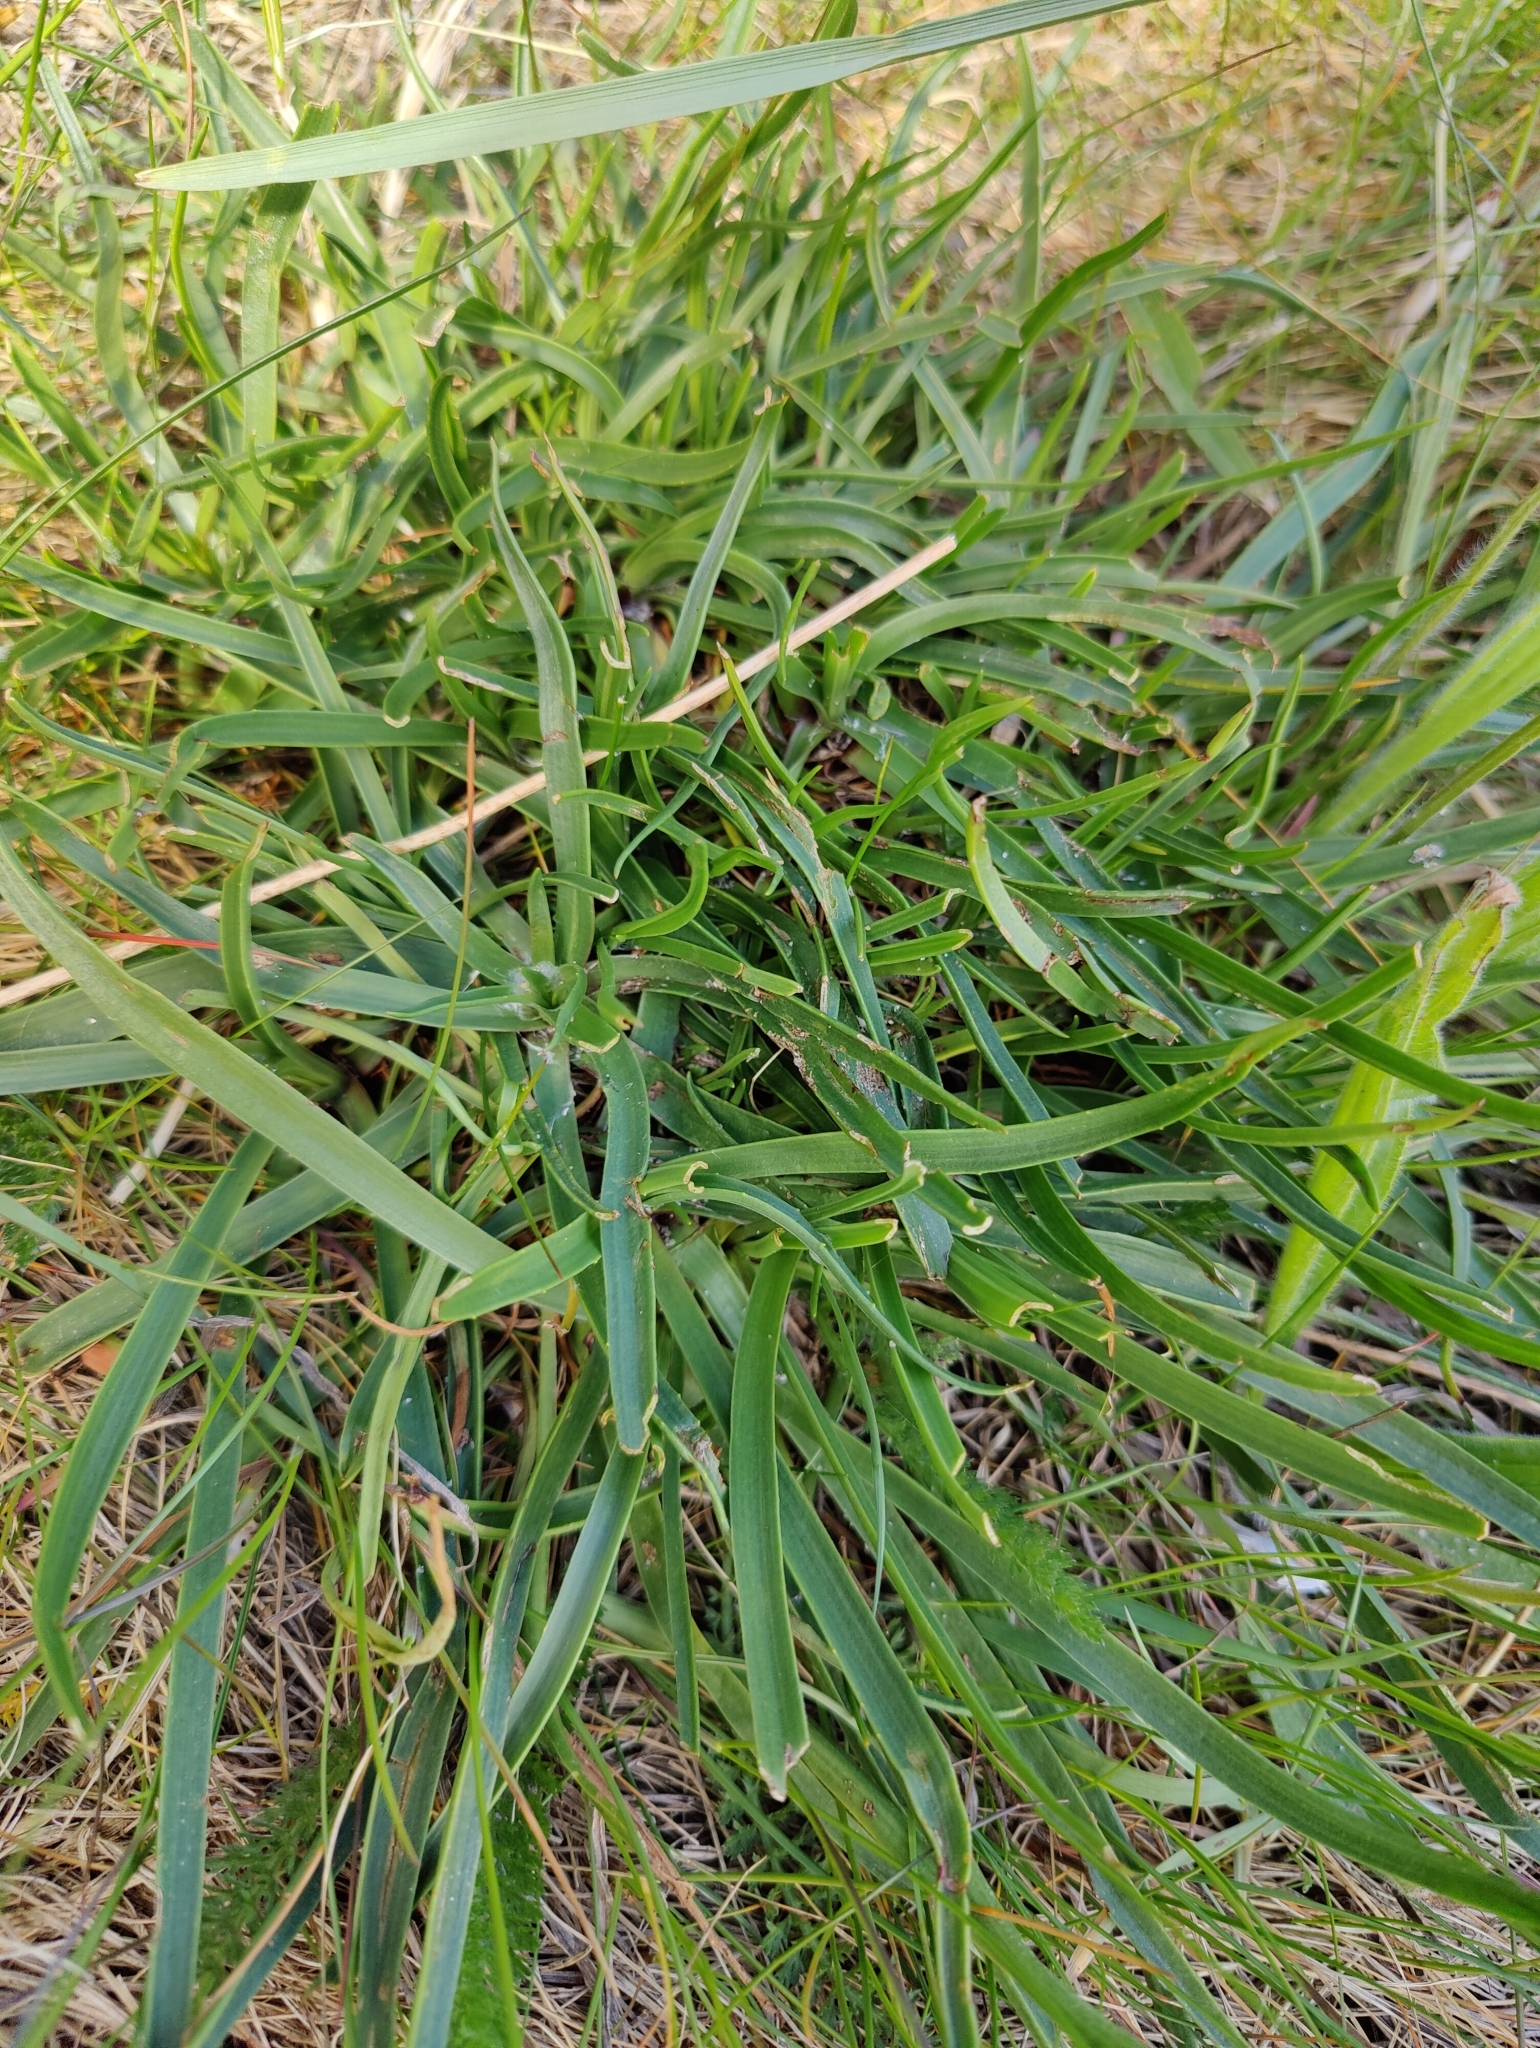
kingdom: Plantae
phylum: Tracheophyta
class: Magnoliopsida
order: Lamiales
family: Plantaginaceae
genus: Plantago
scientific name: Plantago maritima
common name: Sea plantain
